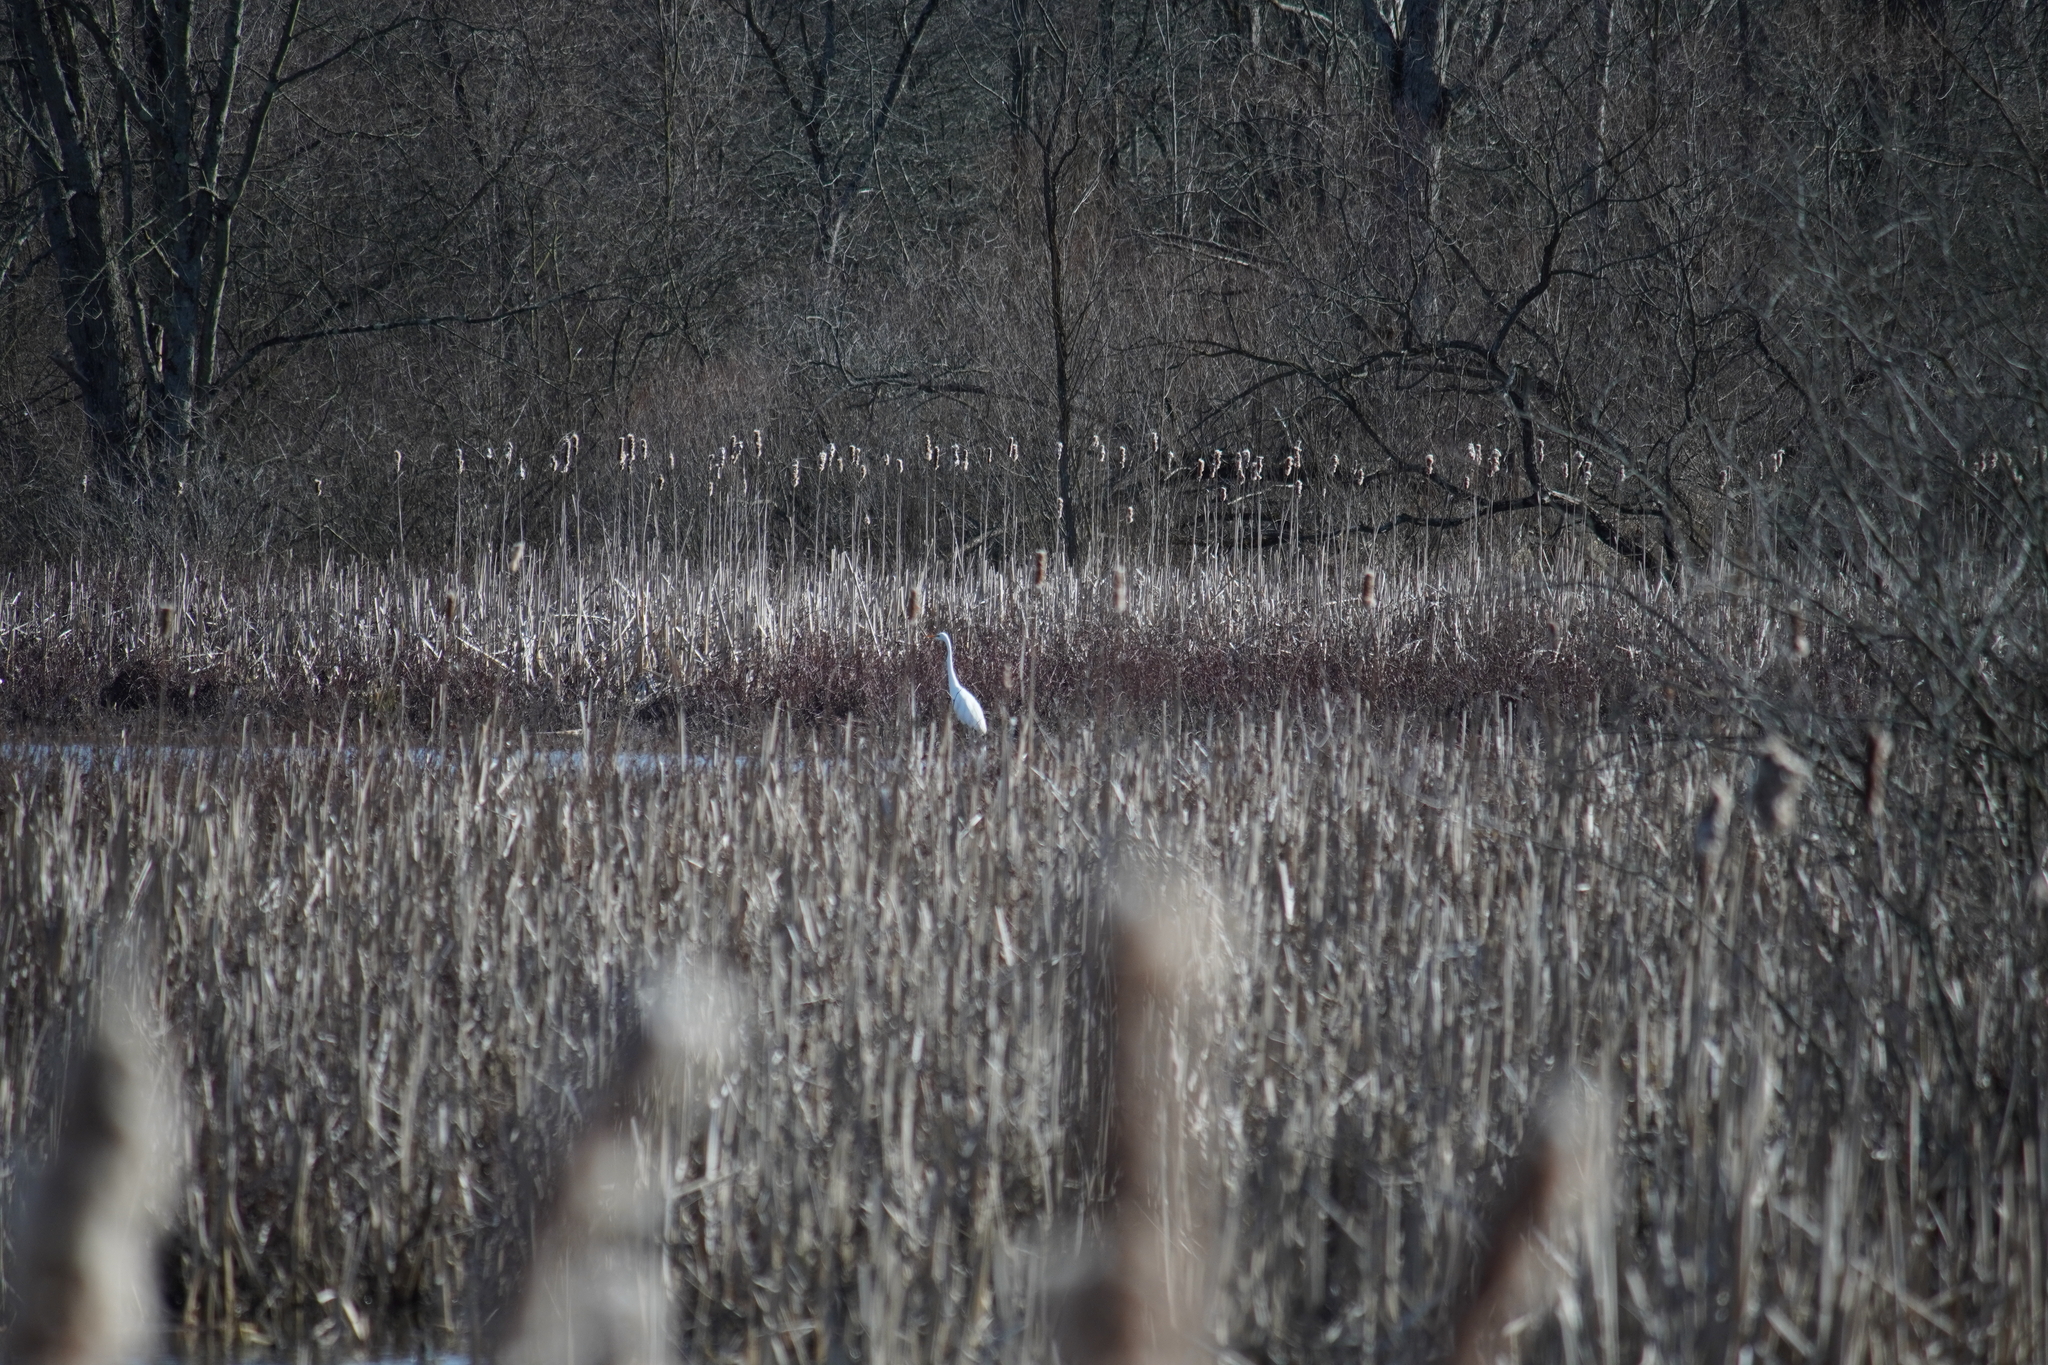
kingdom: Animalia
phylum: Chordata
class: Aves
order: Pelecaniformes
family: Ardeidae
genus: Ardea
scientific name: Ardea alba
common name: Great egret
